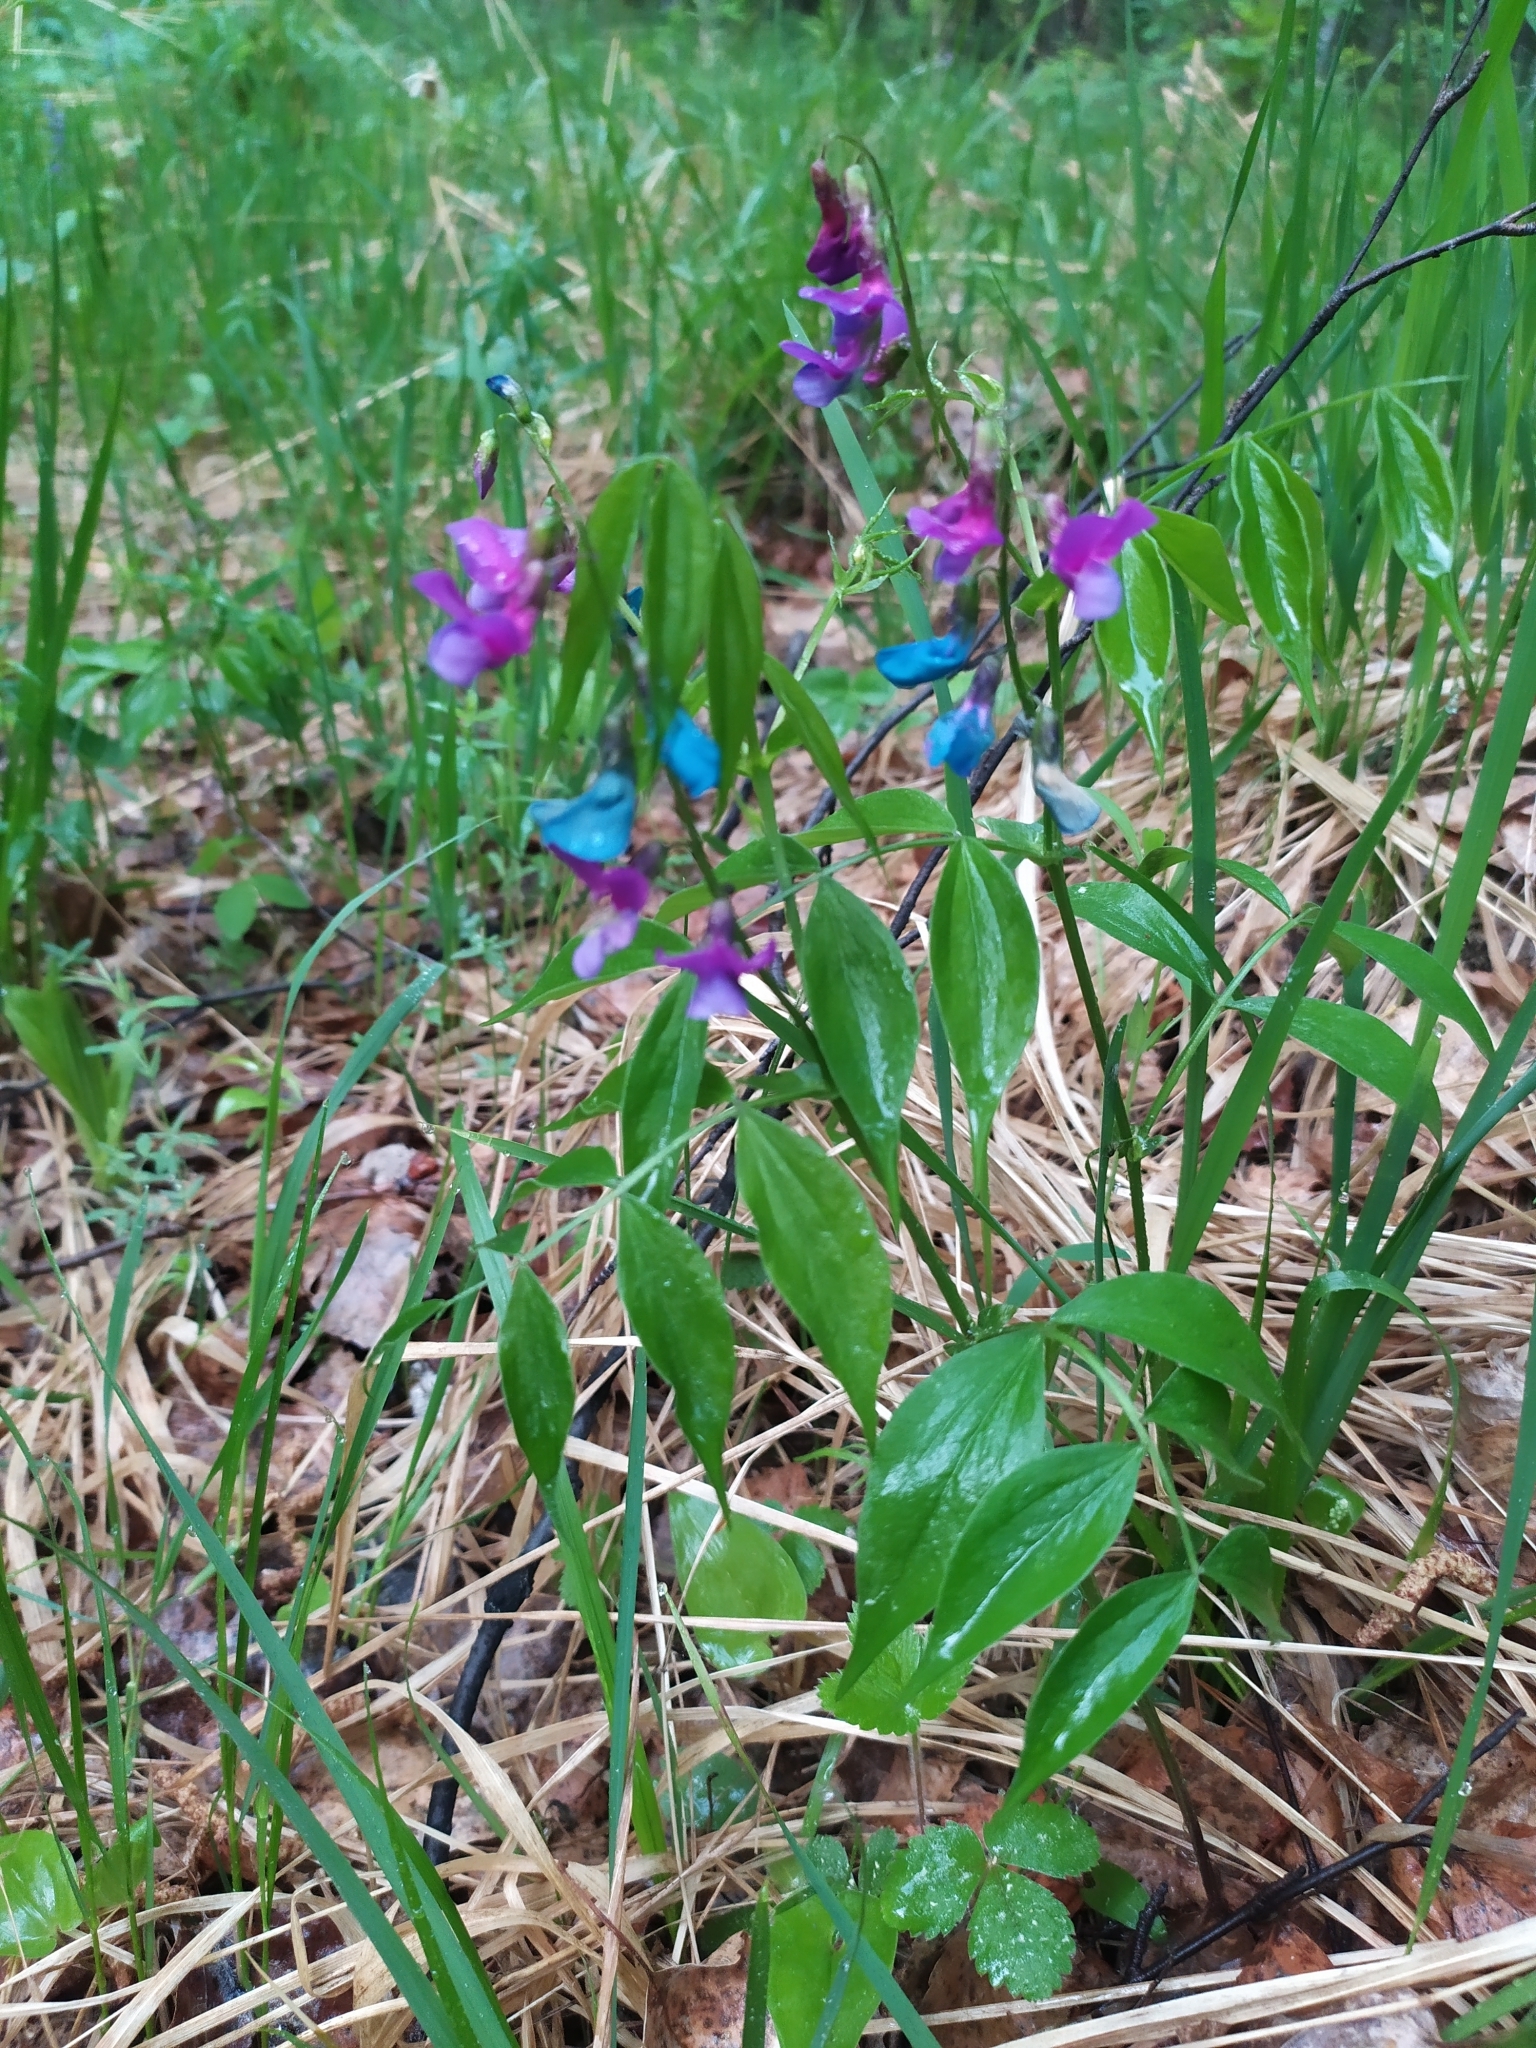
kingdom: Plantae
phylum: Tracheophyta
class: Magnoliopsida
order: Fabales
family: Fabaceae
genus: Lathyrus
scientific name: Lathyrus vernus
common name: Spring pea
